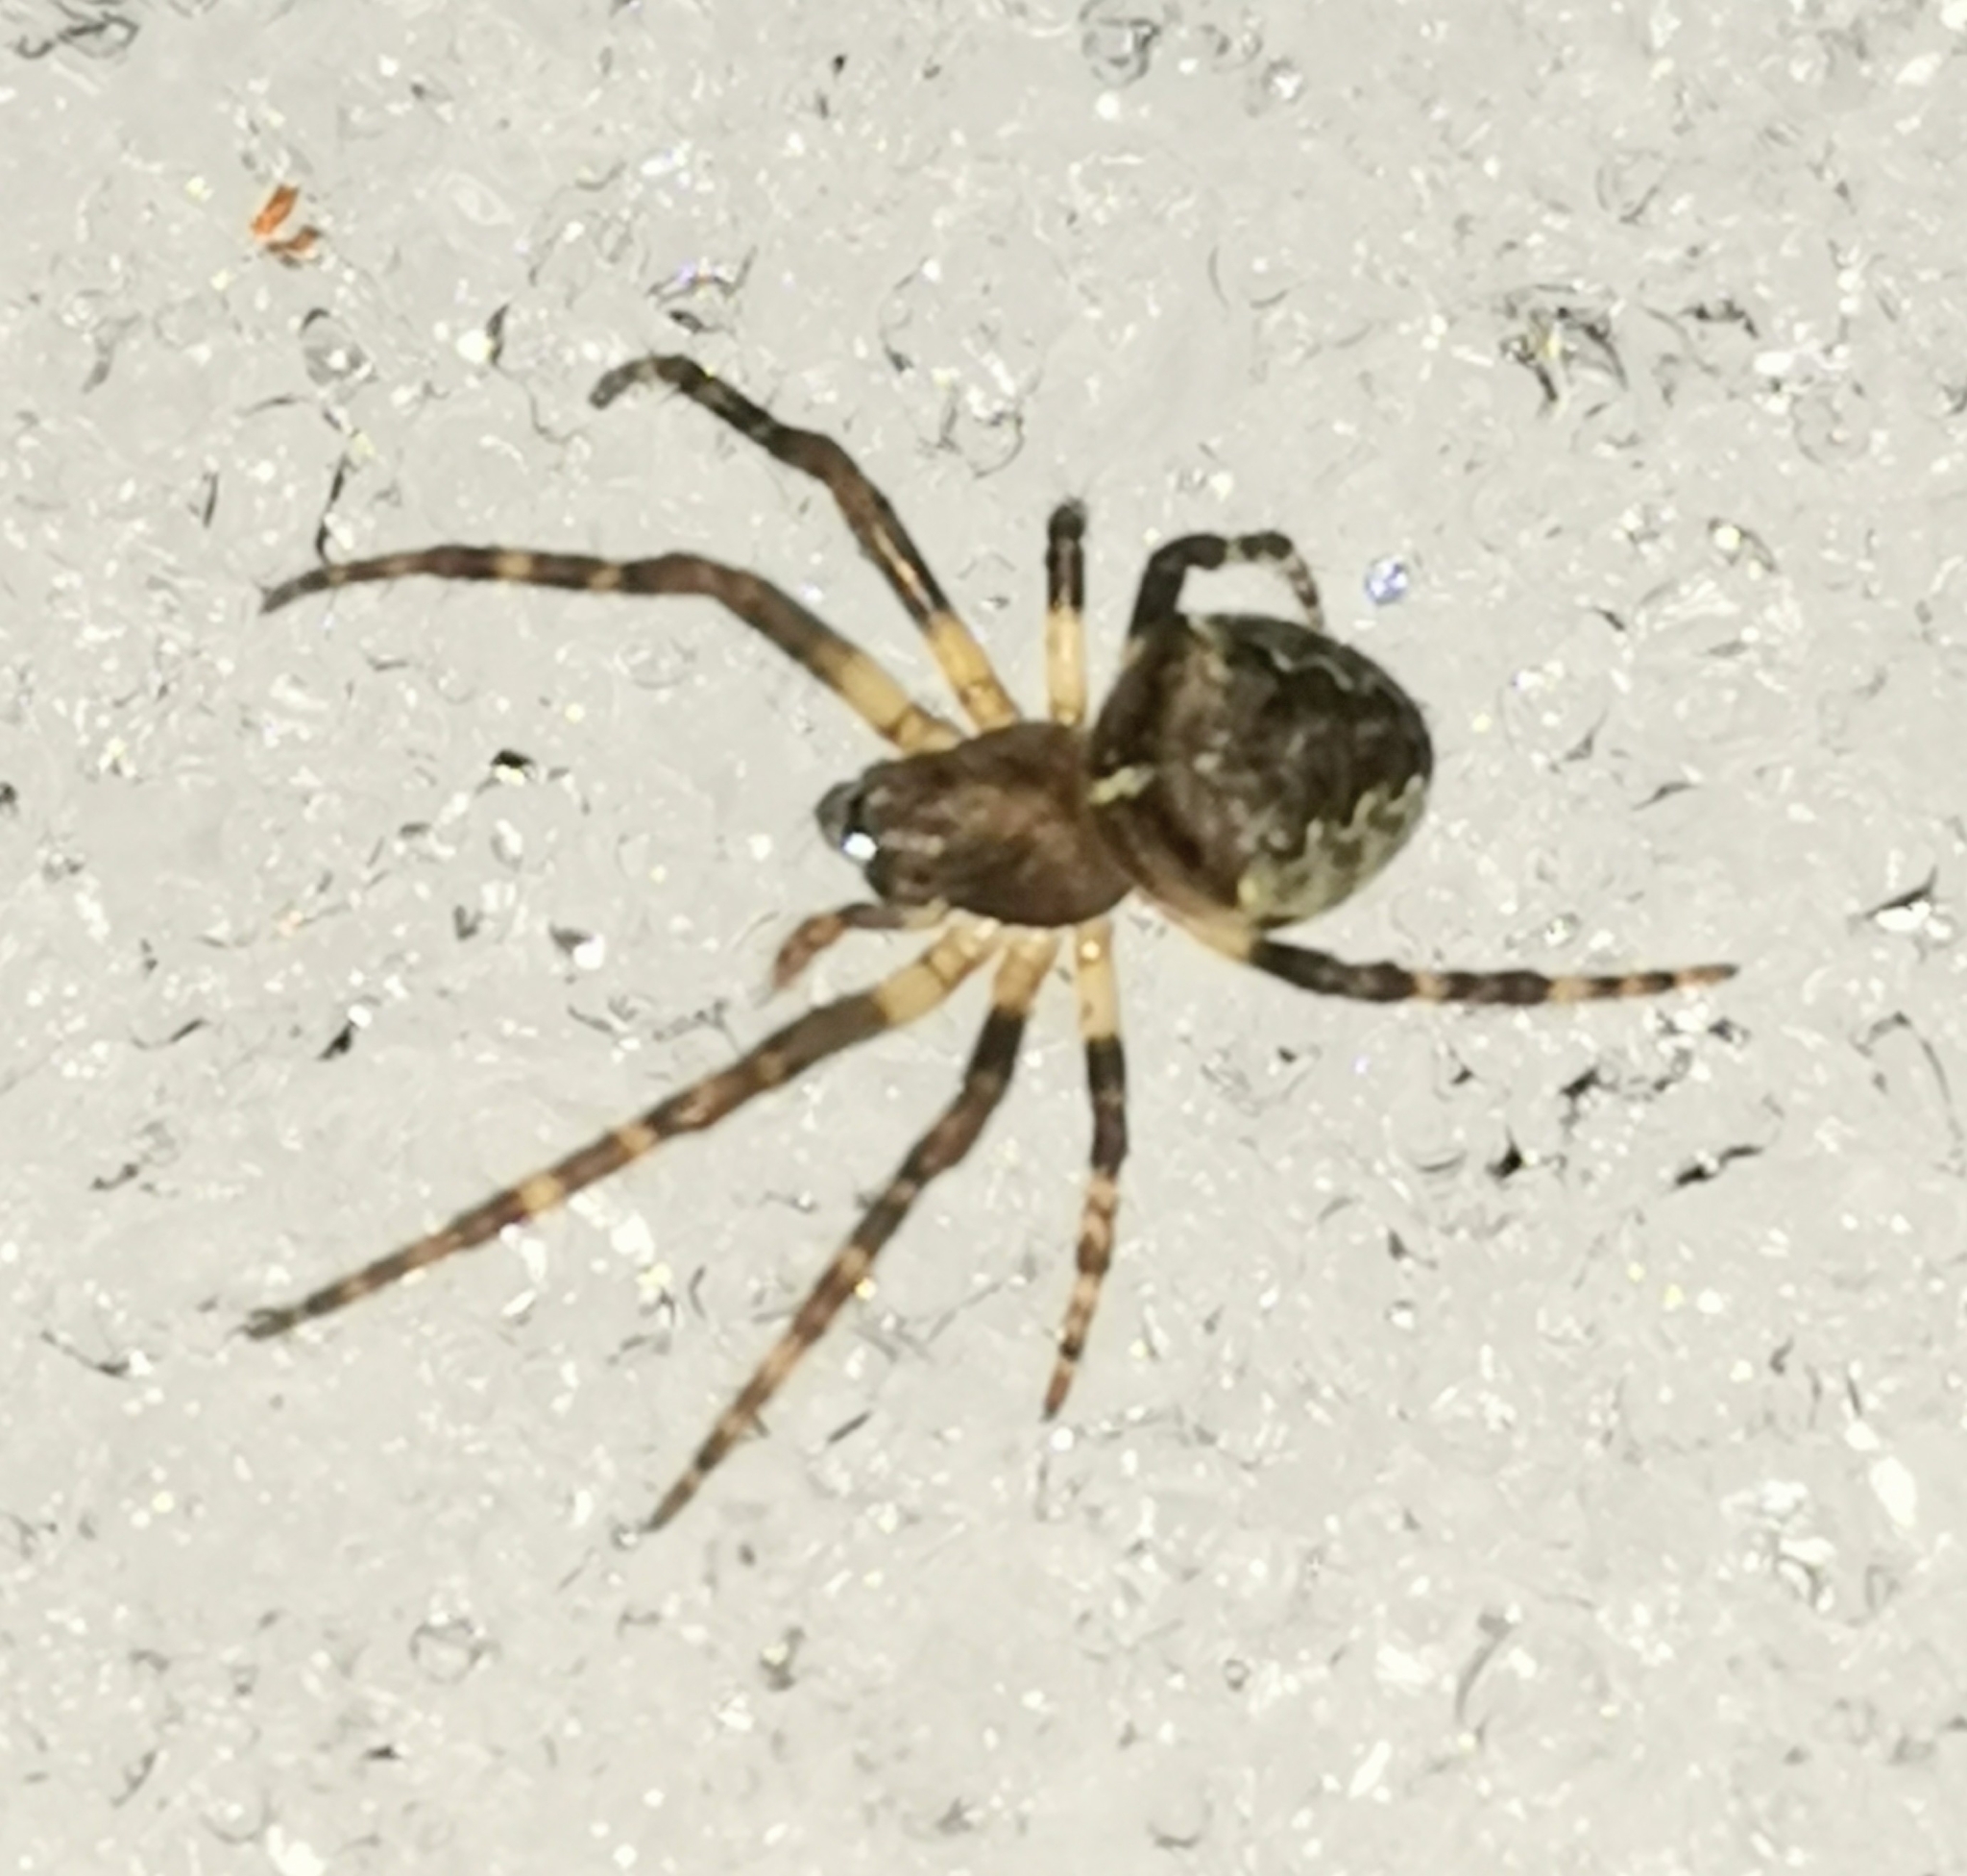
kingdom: Animalia
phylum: Arthropoda
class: Arachnida
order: Araneae
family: Araneidae
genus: Gibbaranea
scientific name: Gibbaranea omoeda
